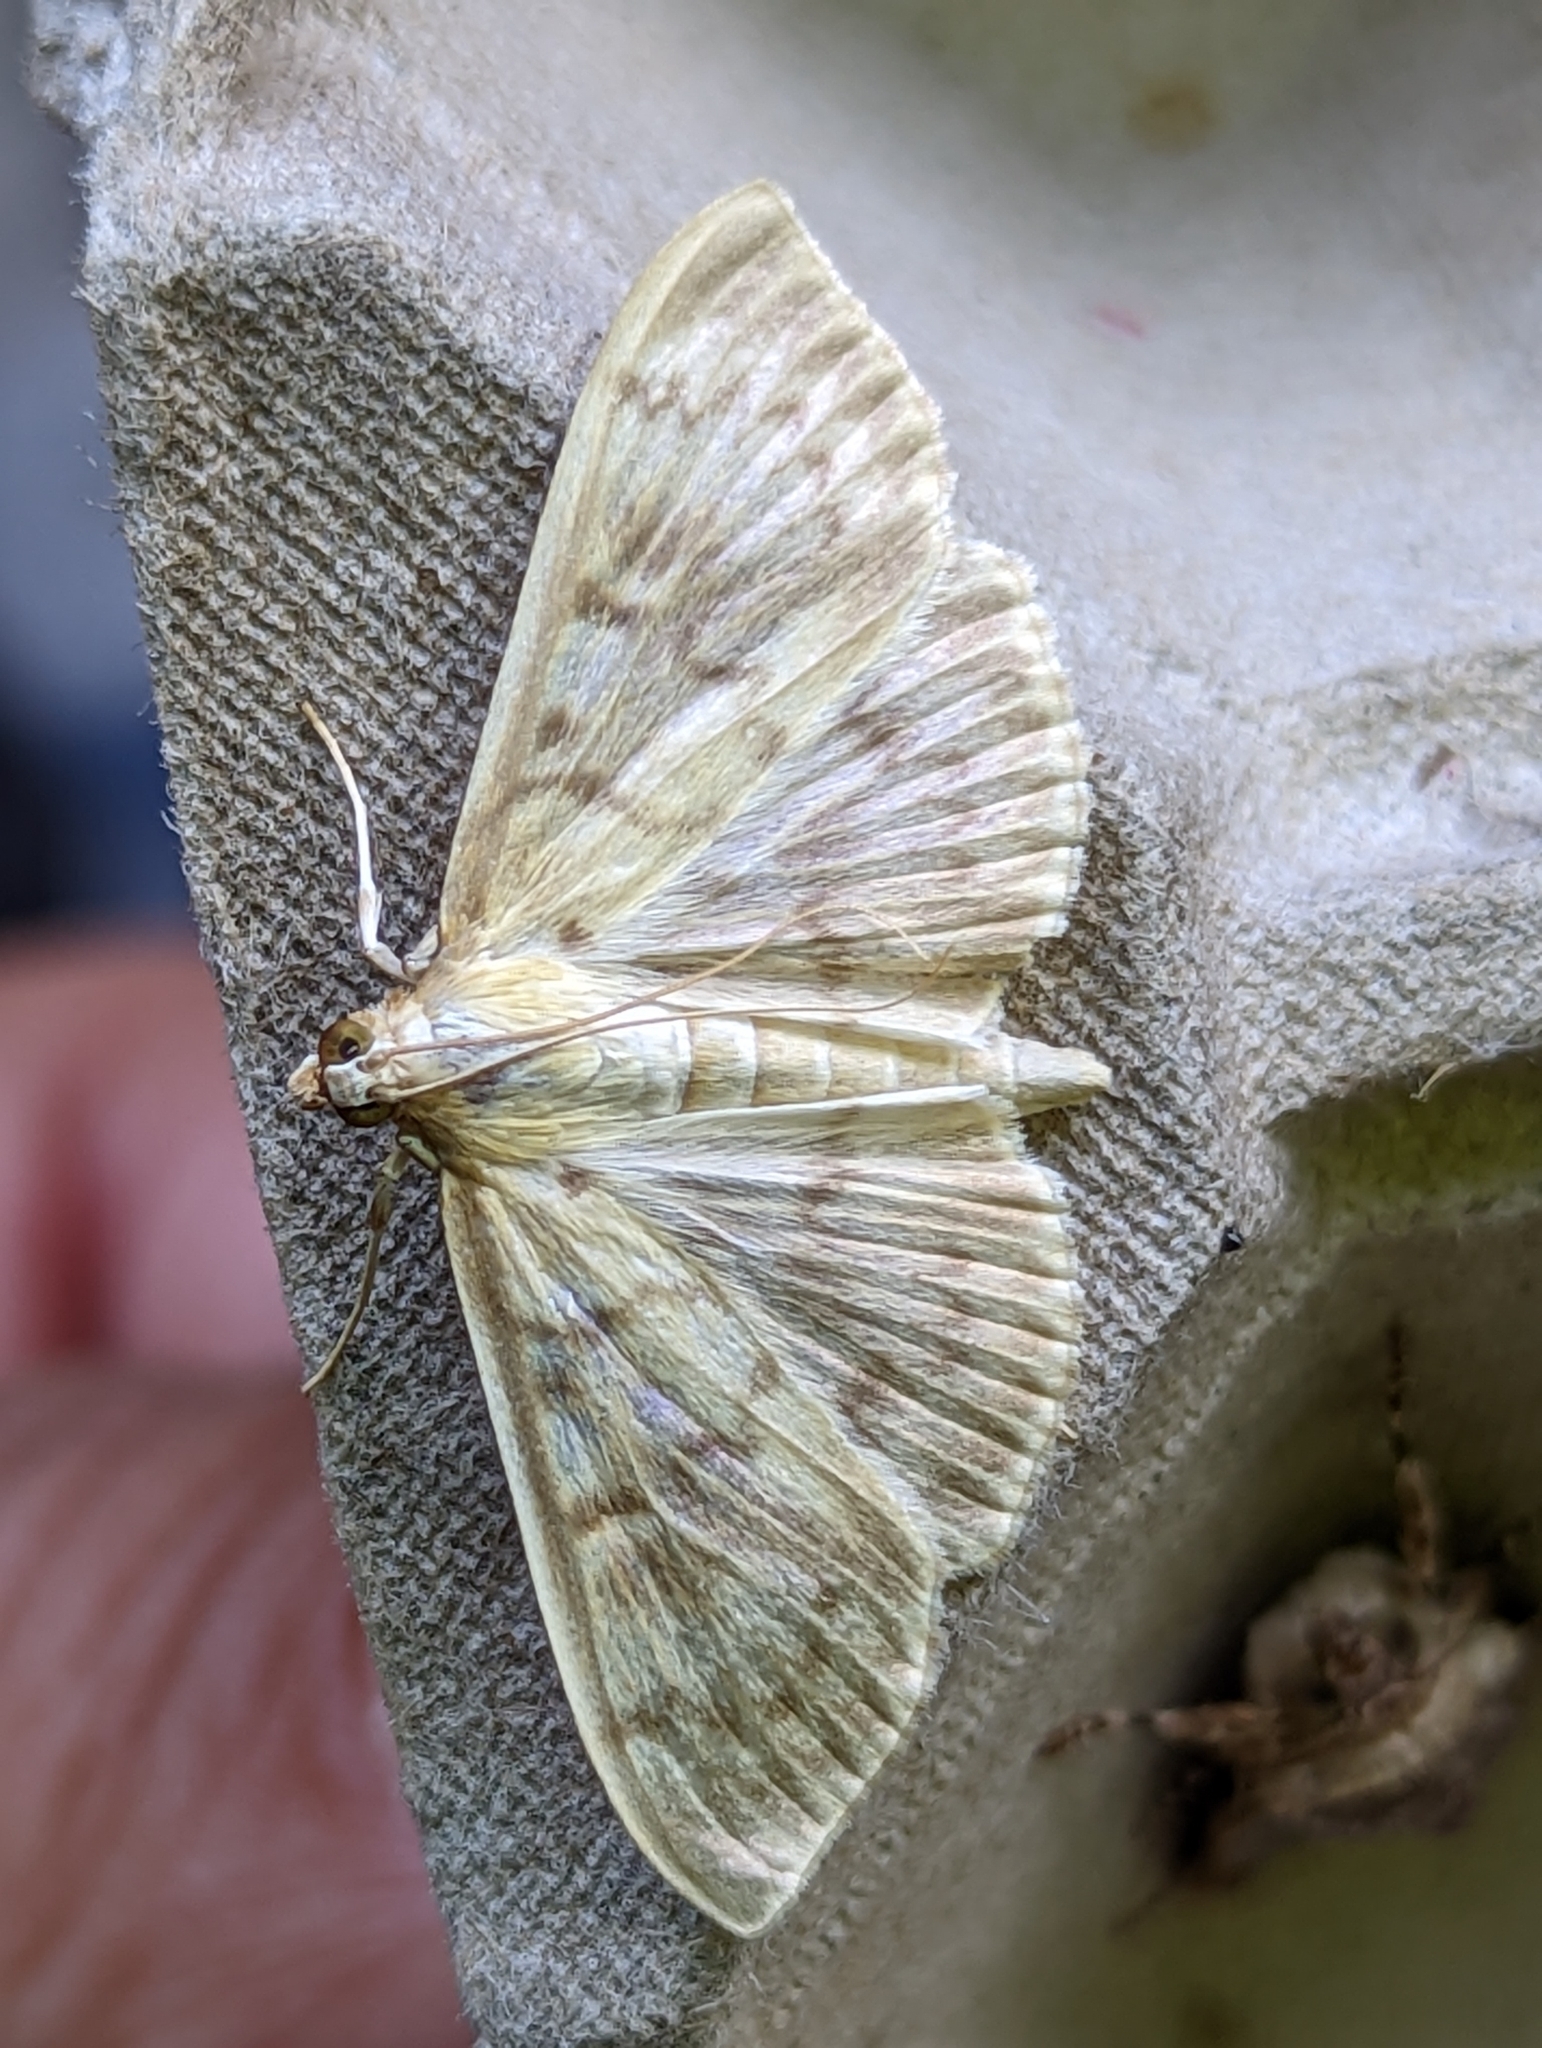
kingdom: Animalia
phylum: Arthropoda
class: Insecta
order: Lepidoptera
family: Crambidae
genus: Patania
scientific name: Patania ruralis
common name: Mother of pearl
